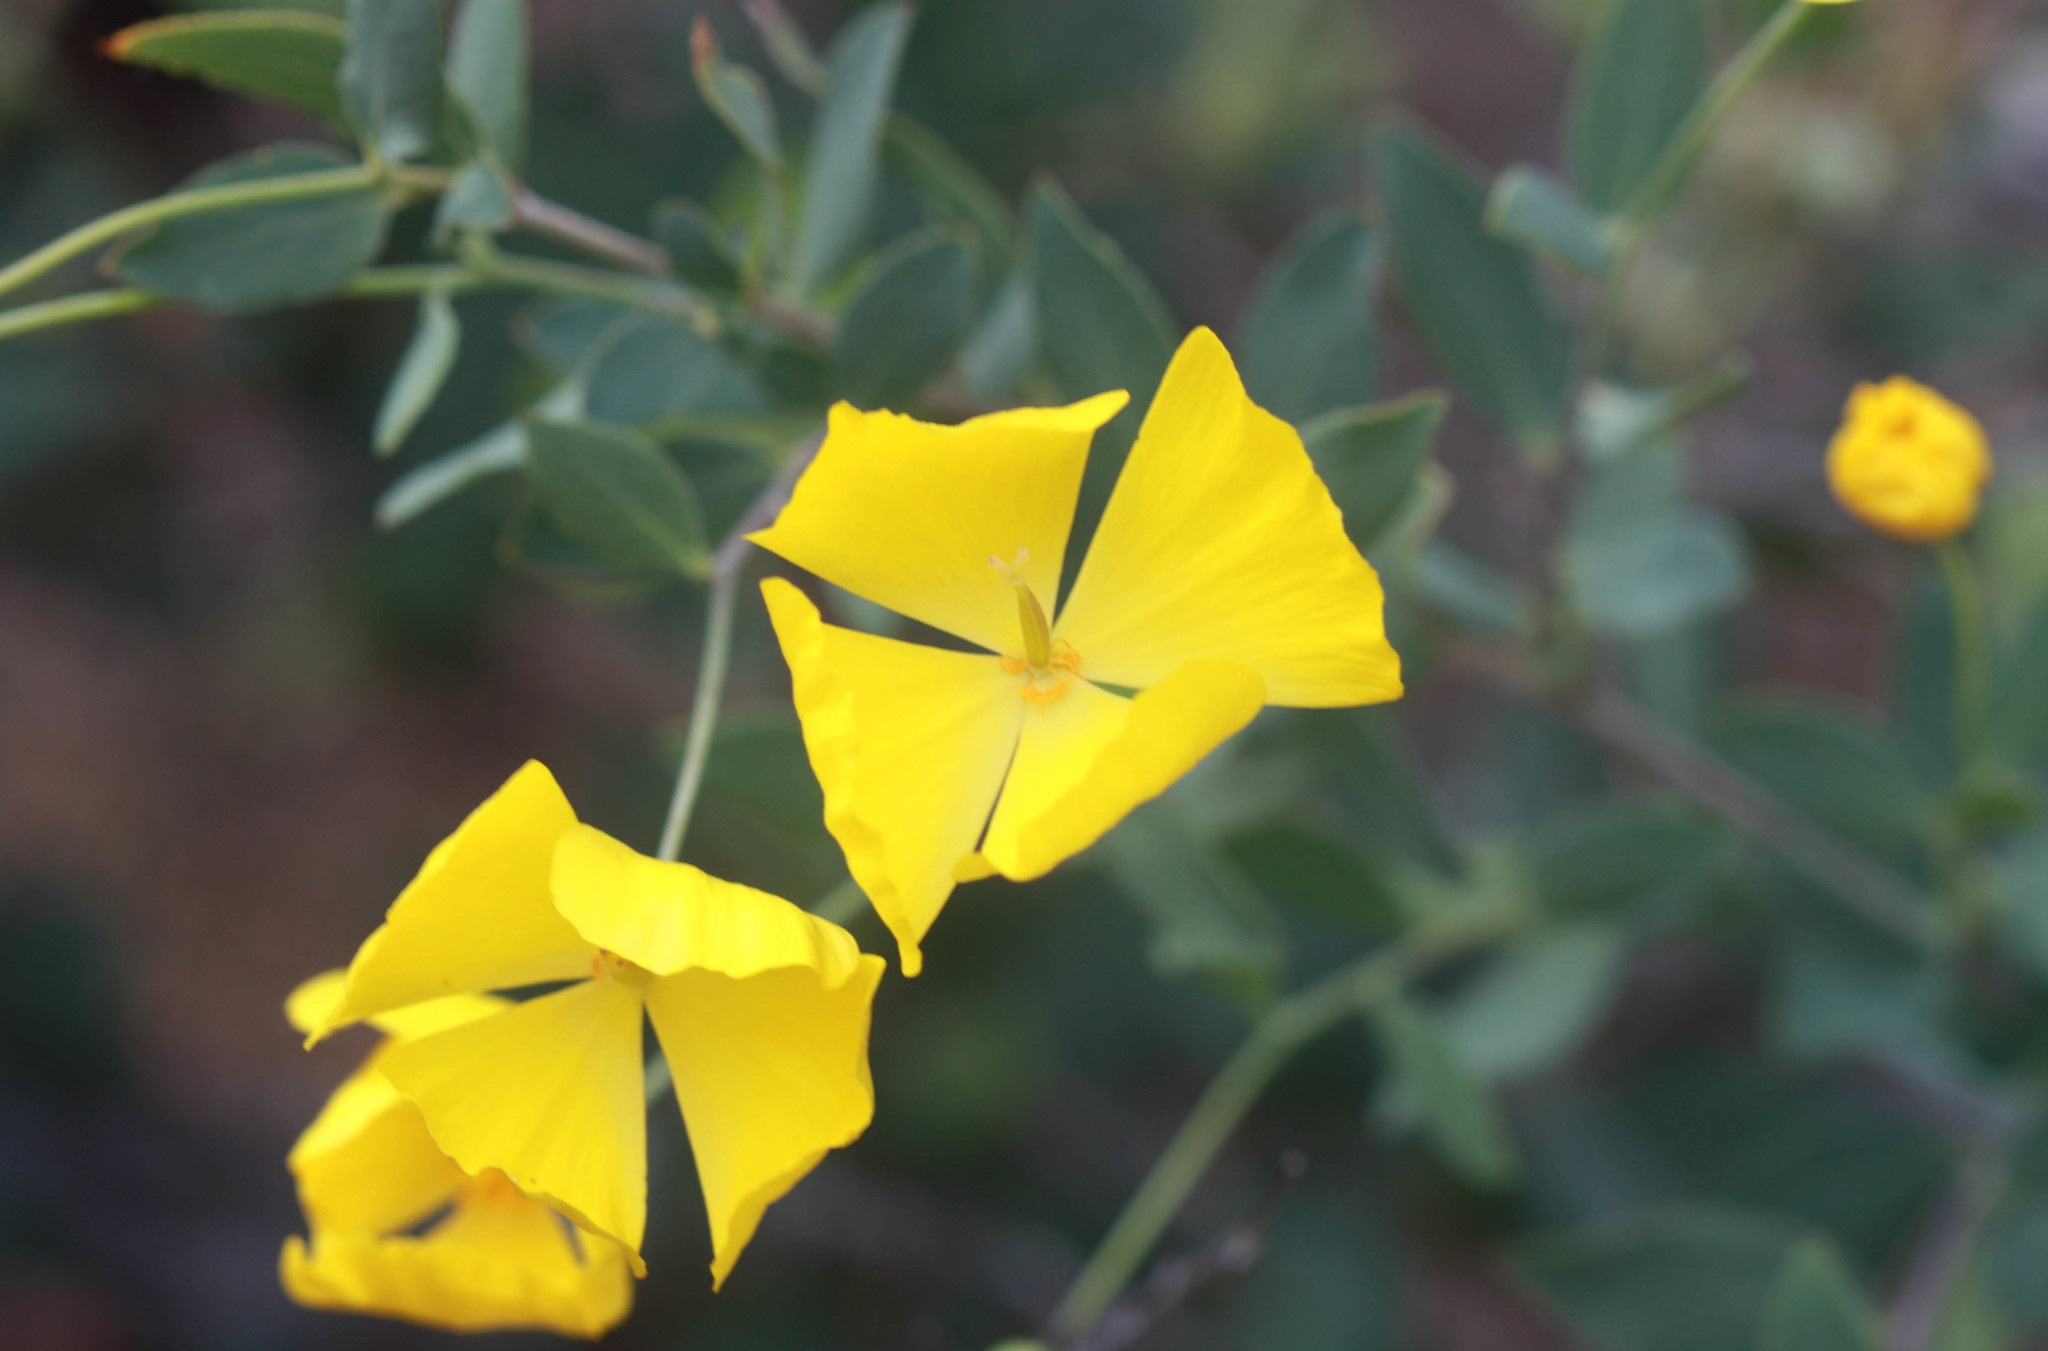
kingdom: Plantae
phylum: Tracheophyta
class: Magnoliopsida
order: Ranunculales
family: Papaveraceae
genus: Dendromecon
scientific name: Dendromecon rigida
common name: Tree poppy
